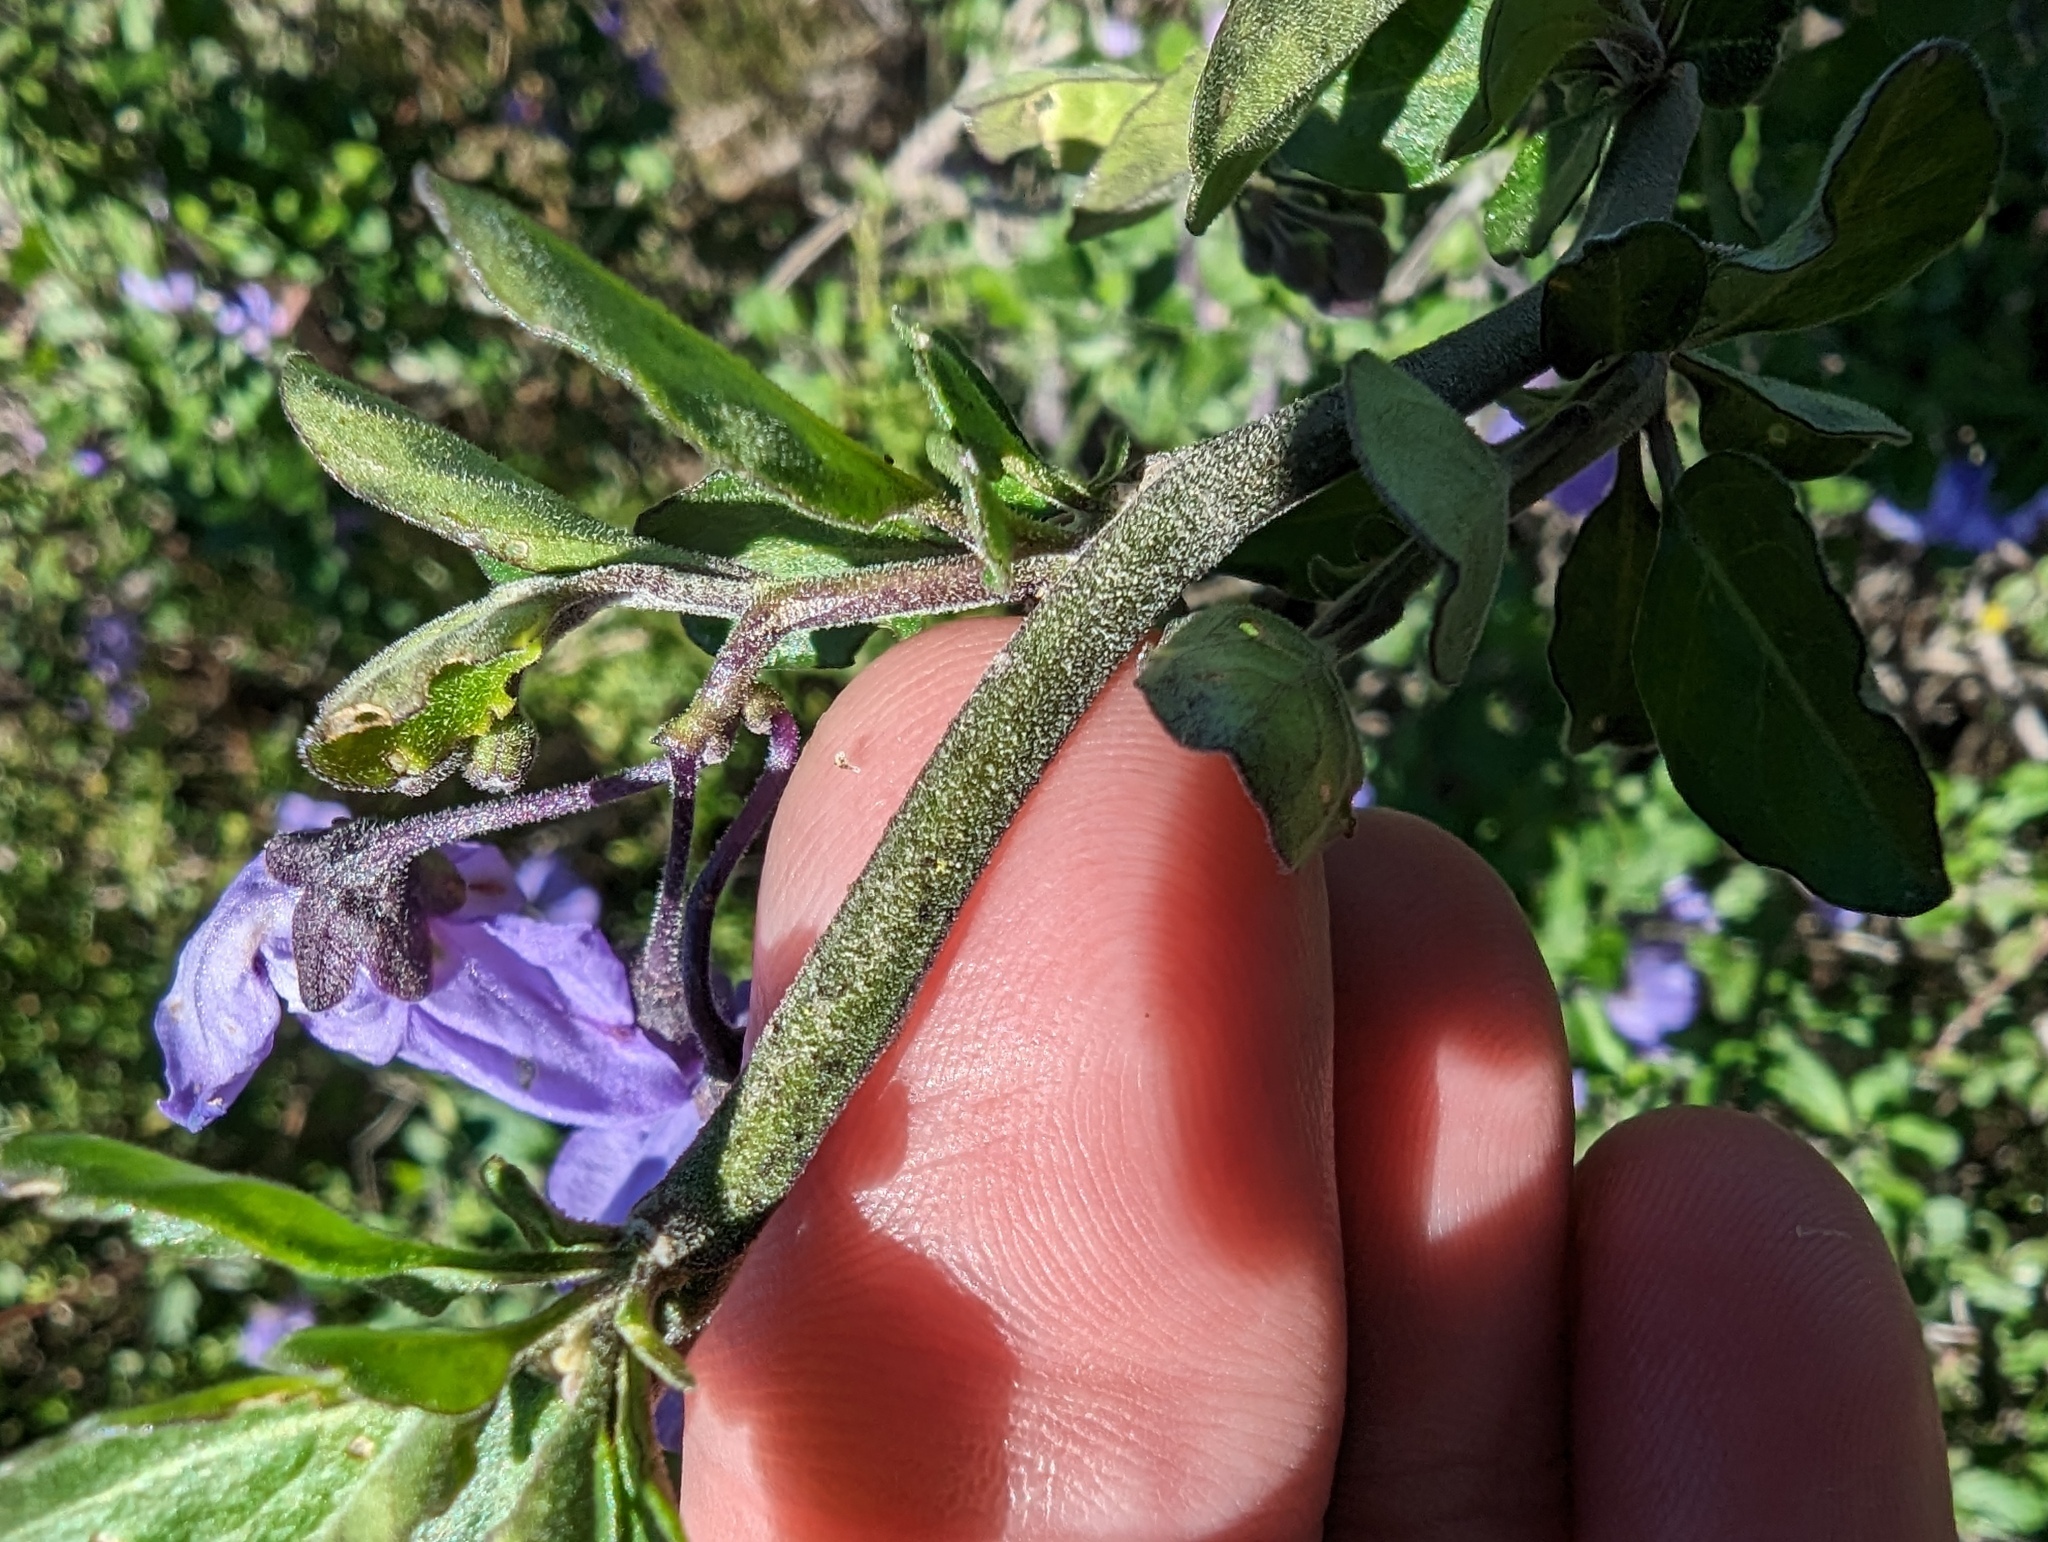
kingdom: Plantae
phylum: Tracheophyta
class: Magnoliopsida
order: Solanales
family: Solanaceae
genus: Solanum
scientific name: Solanum umbelliferum
